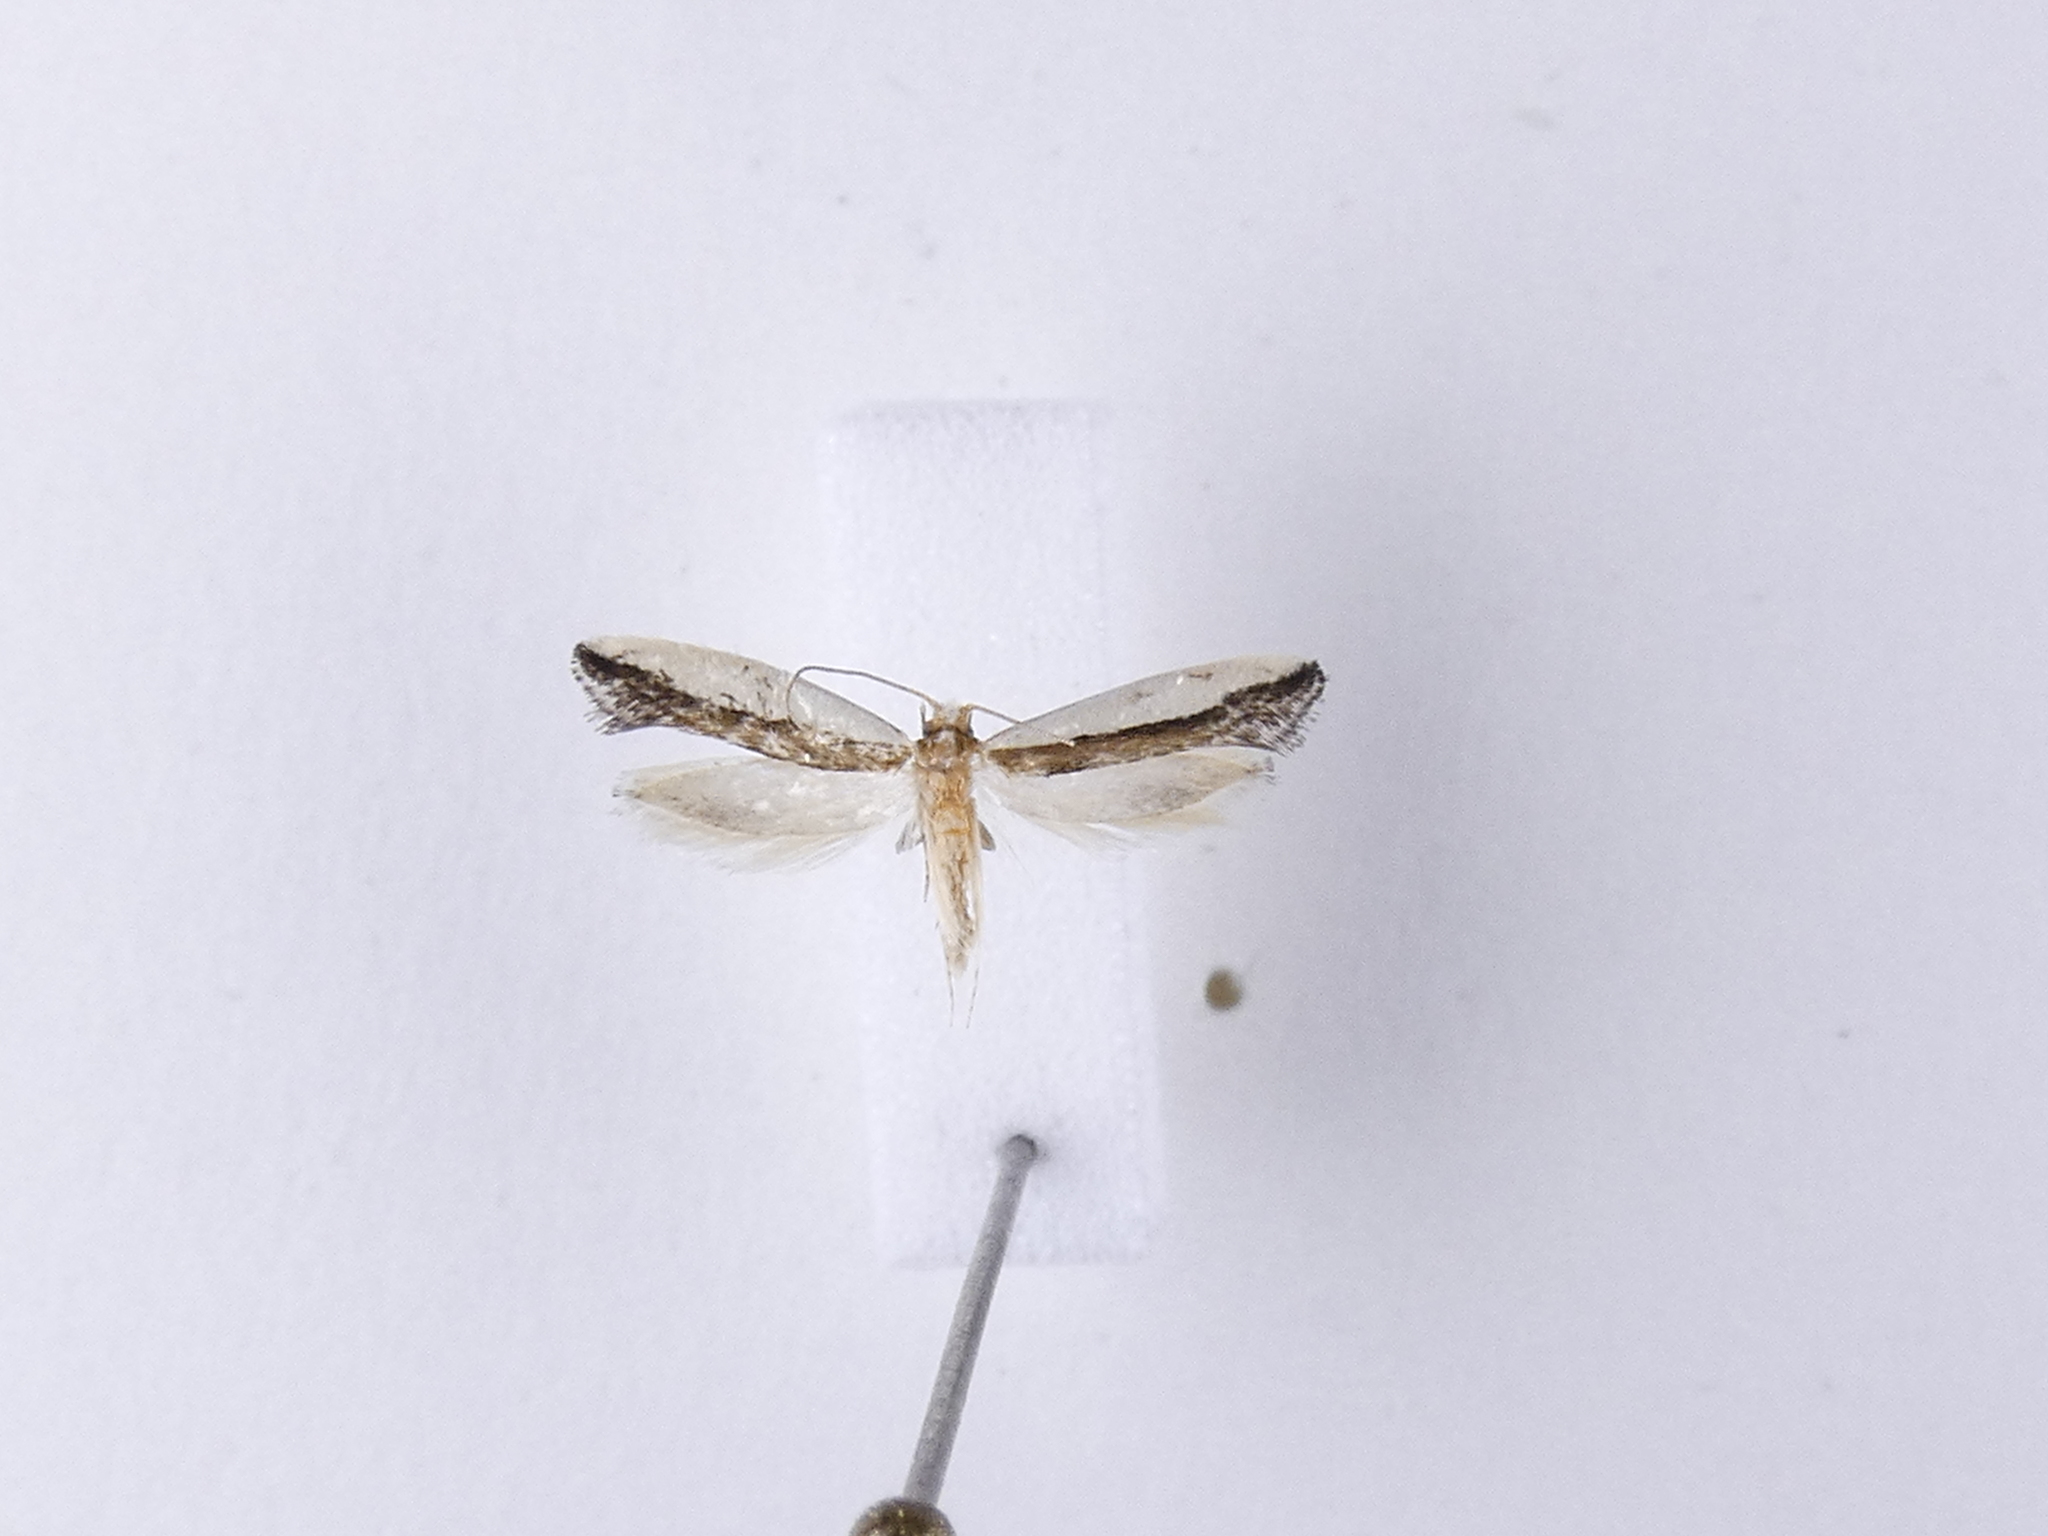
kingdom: Animalia
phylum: Arthropoda
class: Insecta
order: Lepidoptera
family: Tineidae
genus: Erechthias
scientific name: Erechthias chionodira
